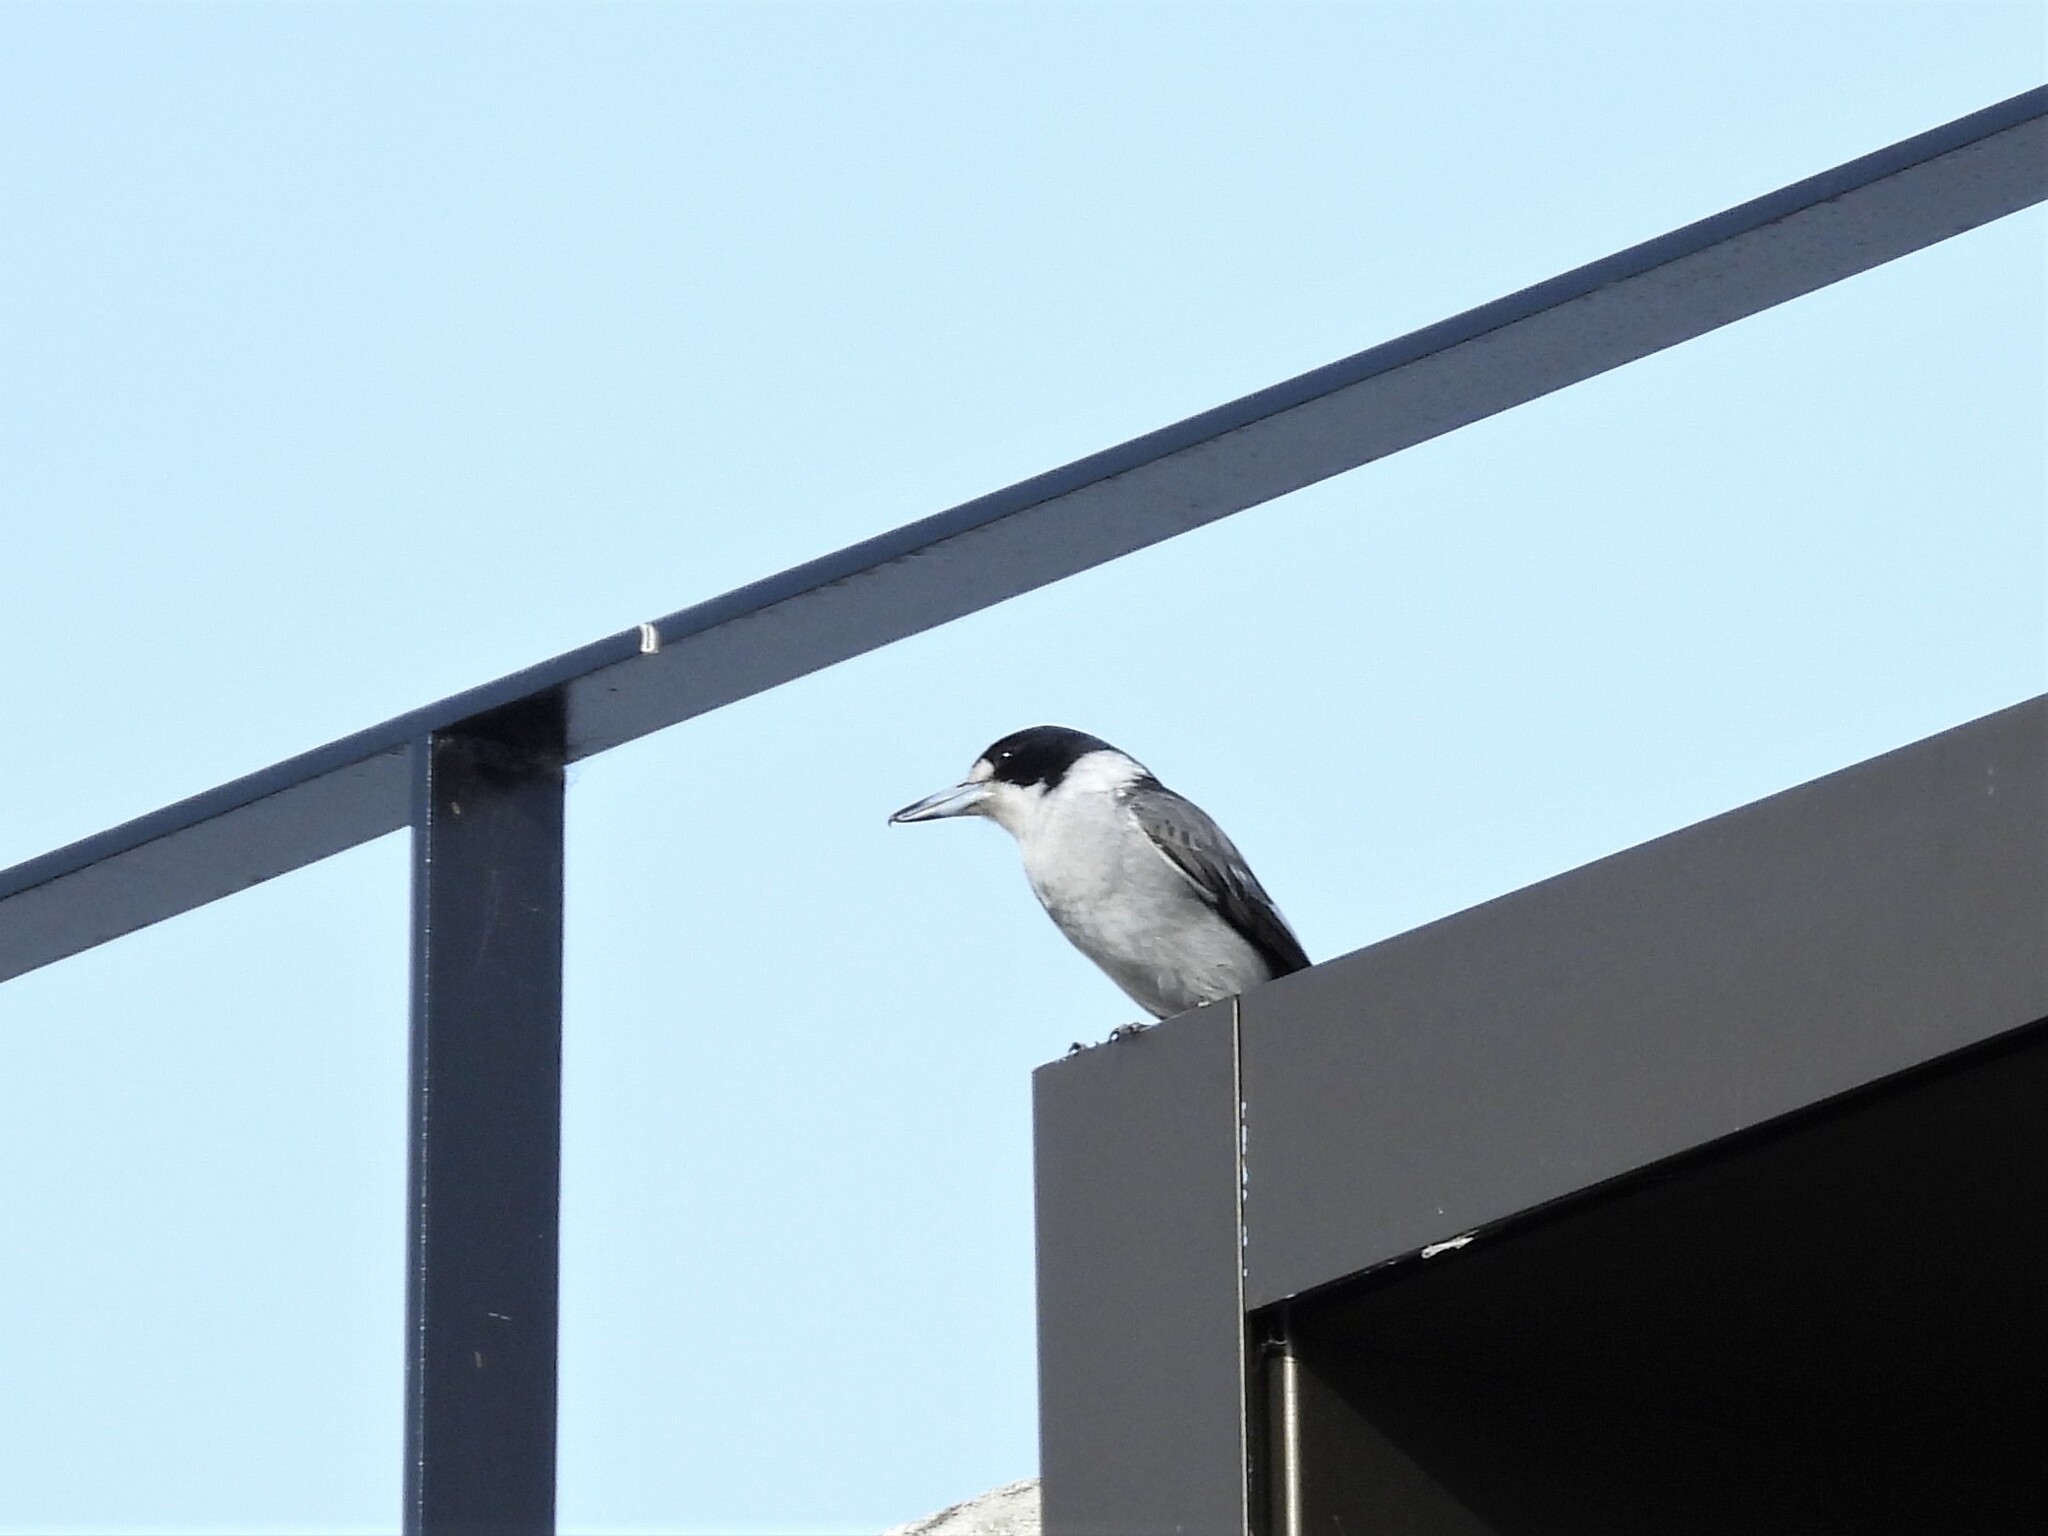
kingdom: Animalia
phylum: Chordata
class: Aves
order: Passeriformes
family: Cracticidae
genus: Cracticus
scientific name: Cracticus torquatus
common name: Grey butcherbird
